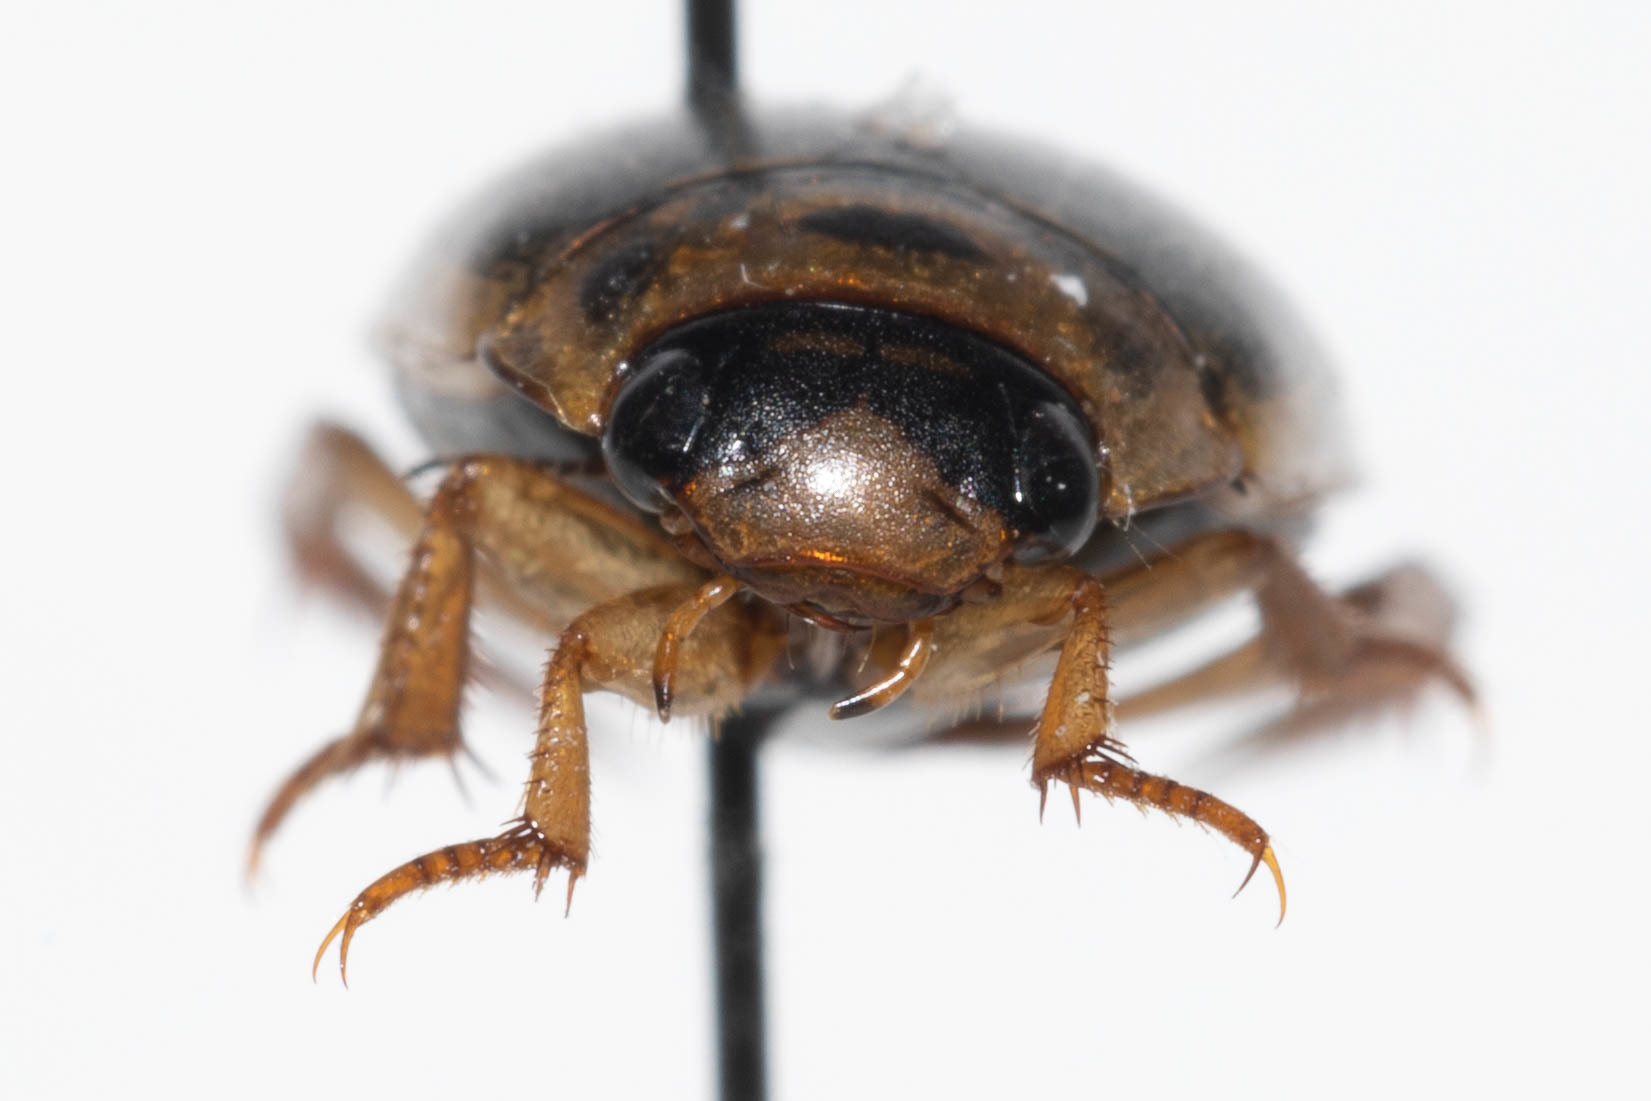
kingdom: Animalia
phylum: Arthropoda
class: Insecta
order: Coleoptera
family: Dytiscidae
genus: Rhantus
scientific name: Rhantus sericans
